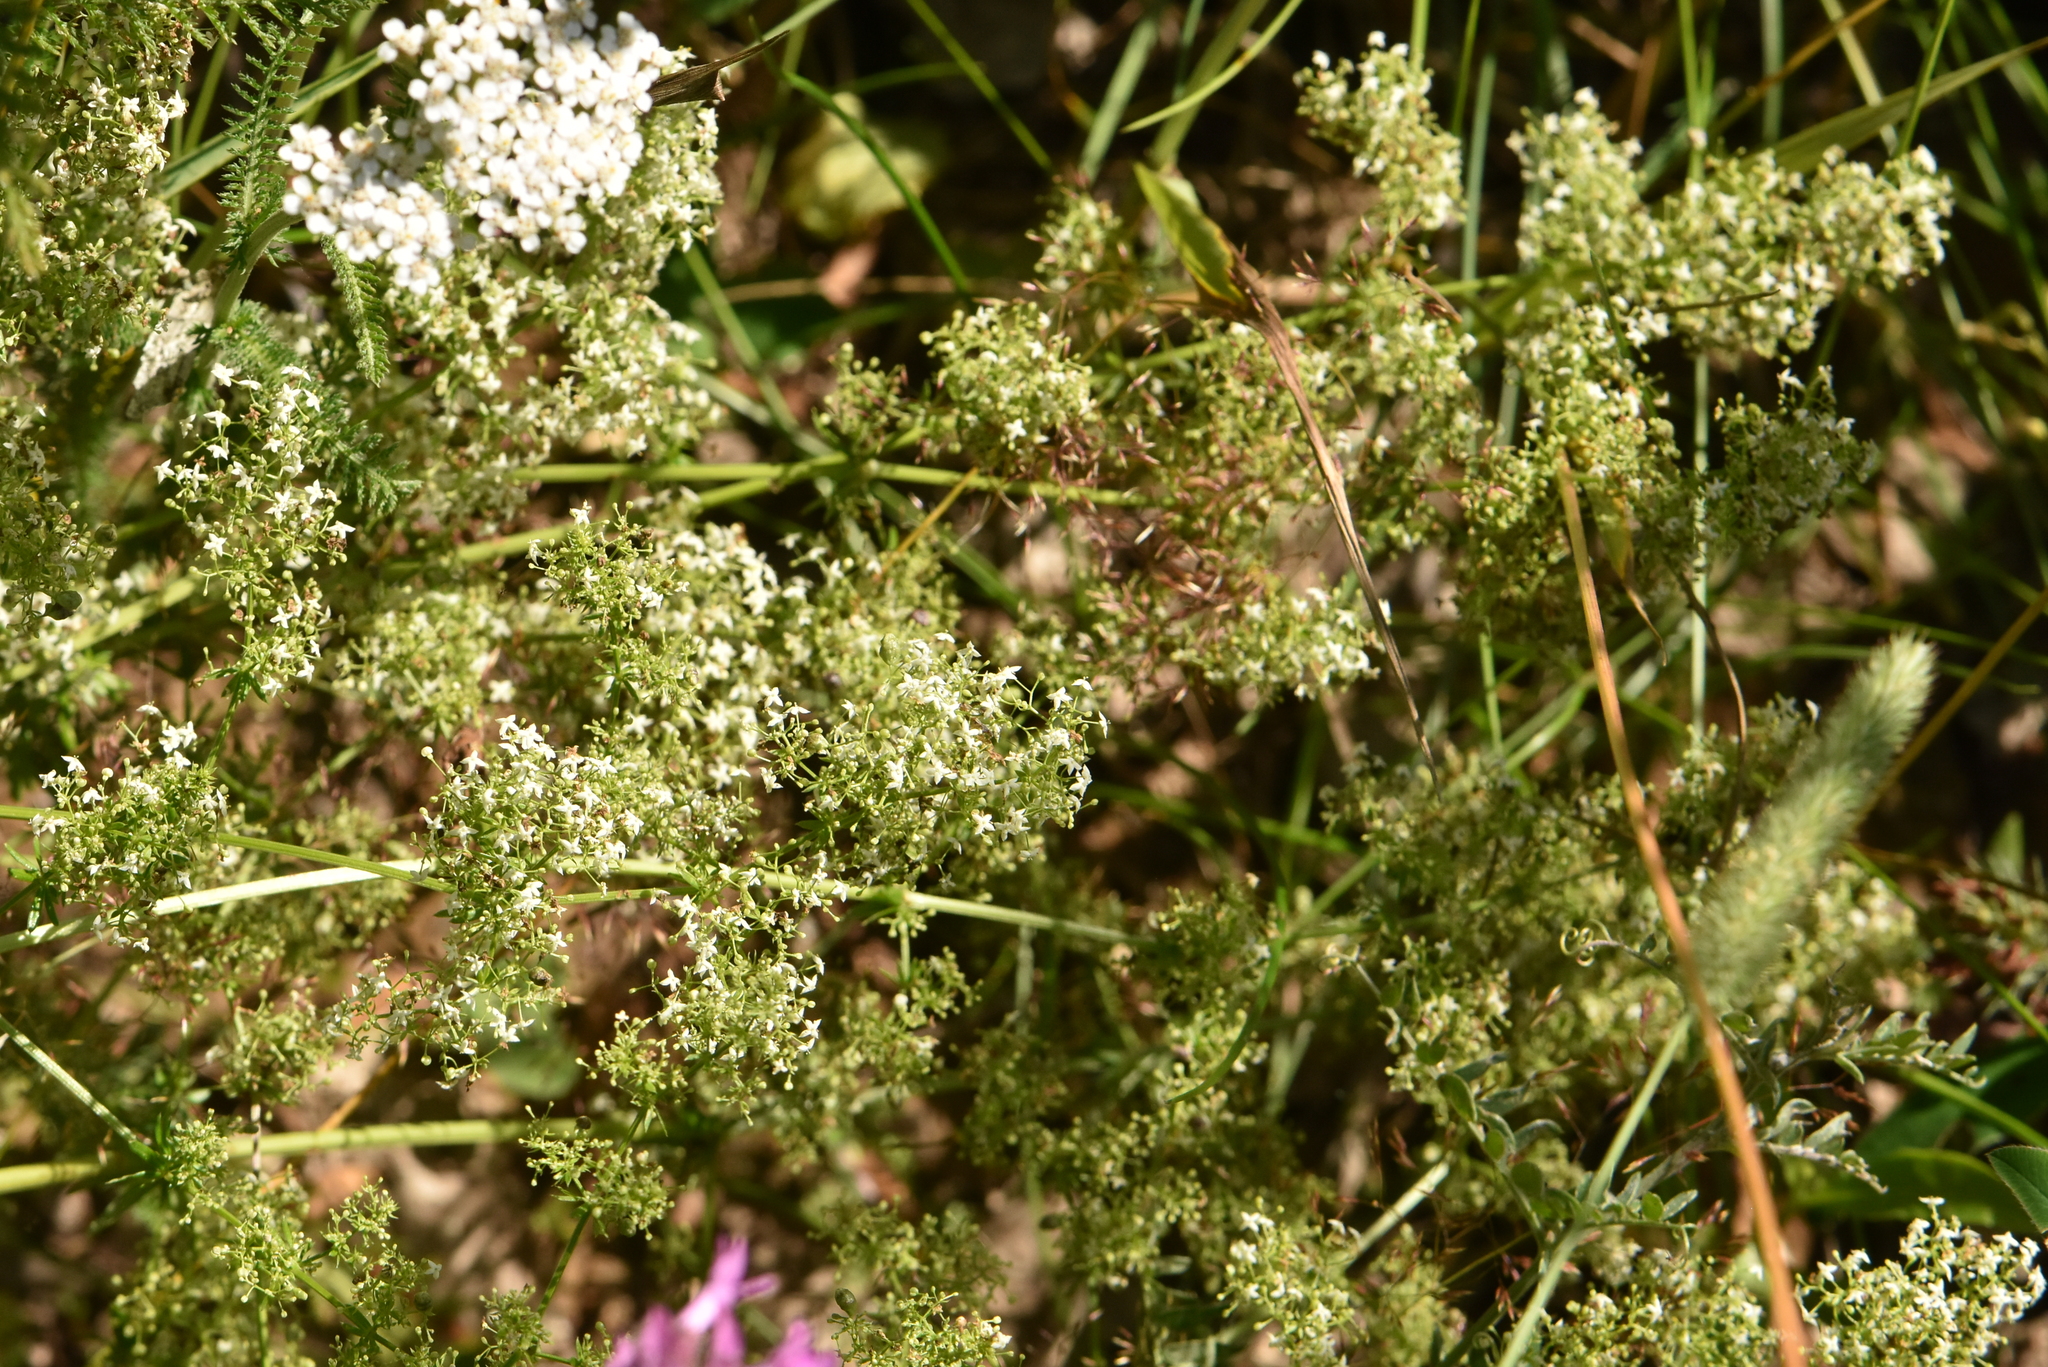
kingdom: Plantae
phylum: Tracheophyta
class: Magnoliopsida
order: Gentianales
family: Rubiaceae
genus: Galium
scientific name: Galium mollugo
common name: Hedge bedstraw
